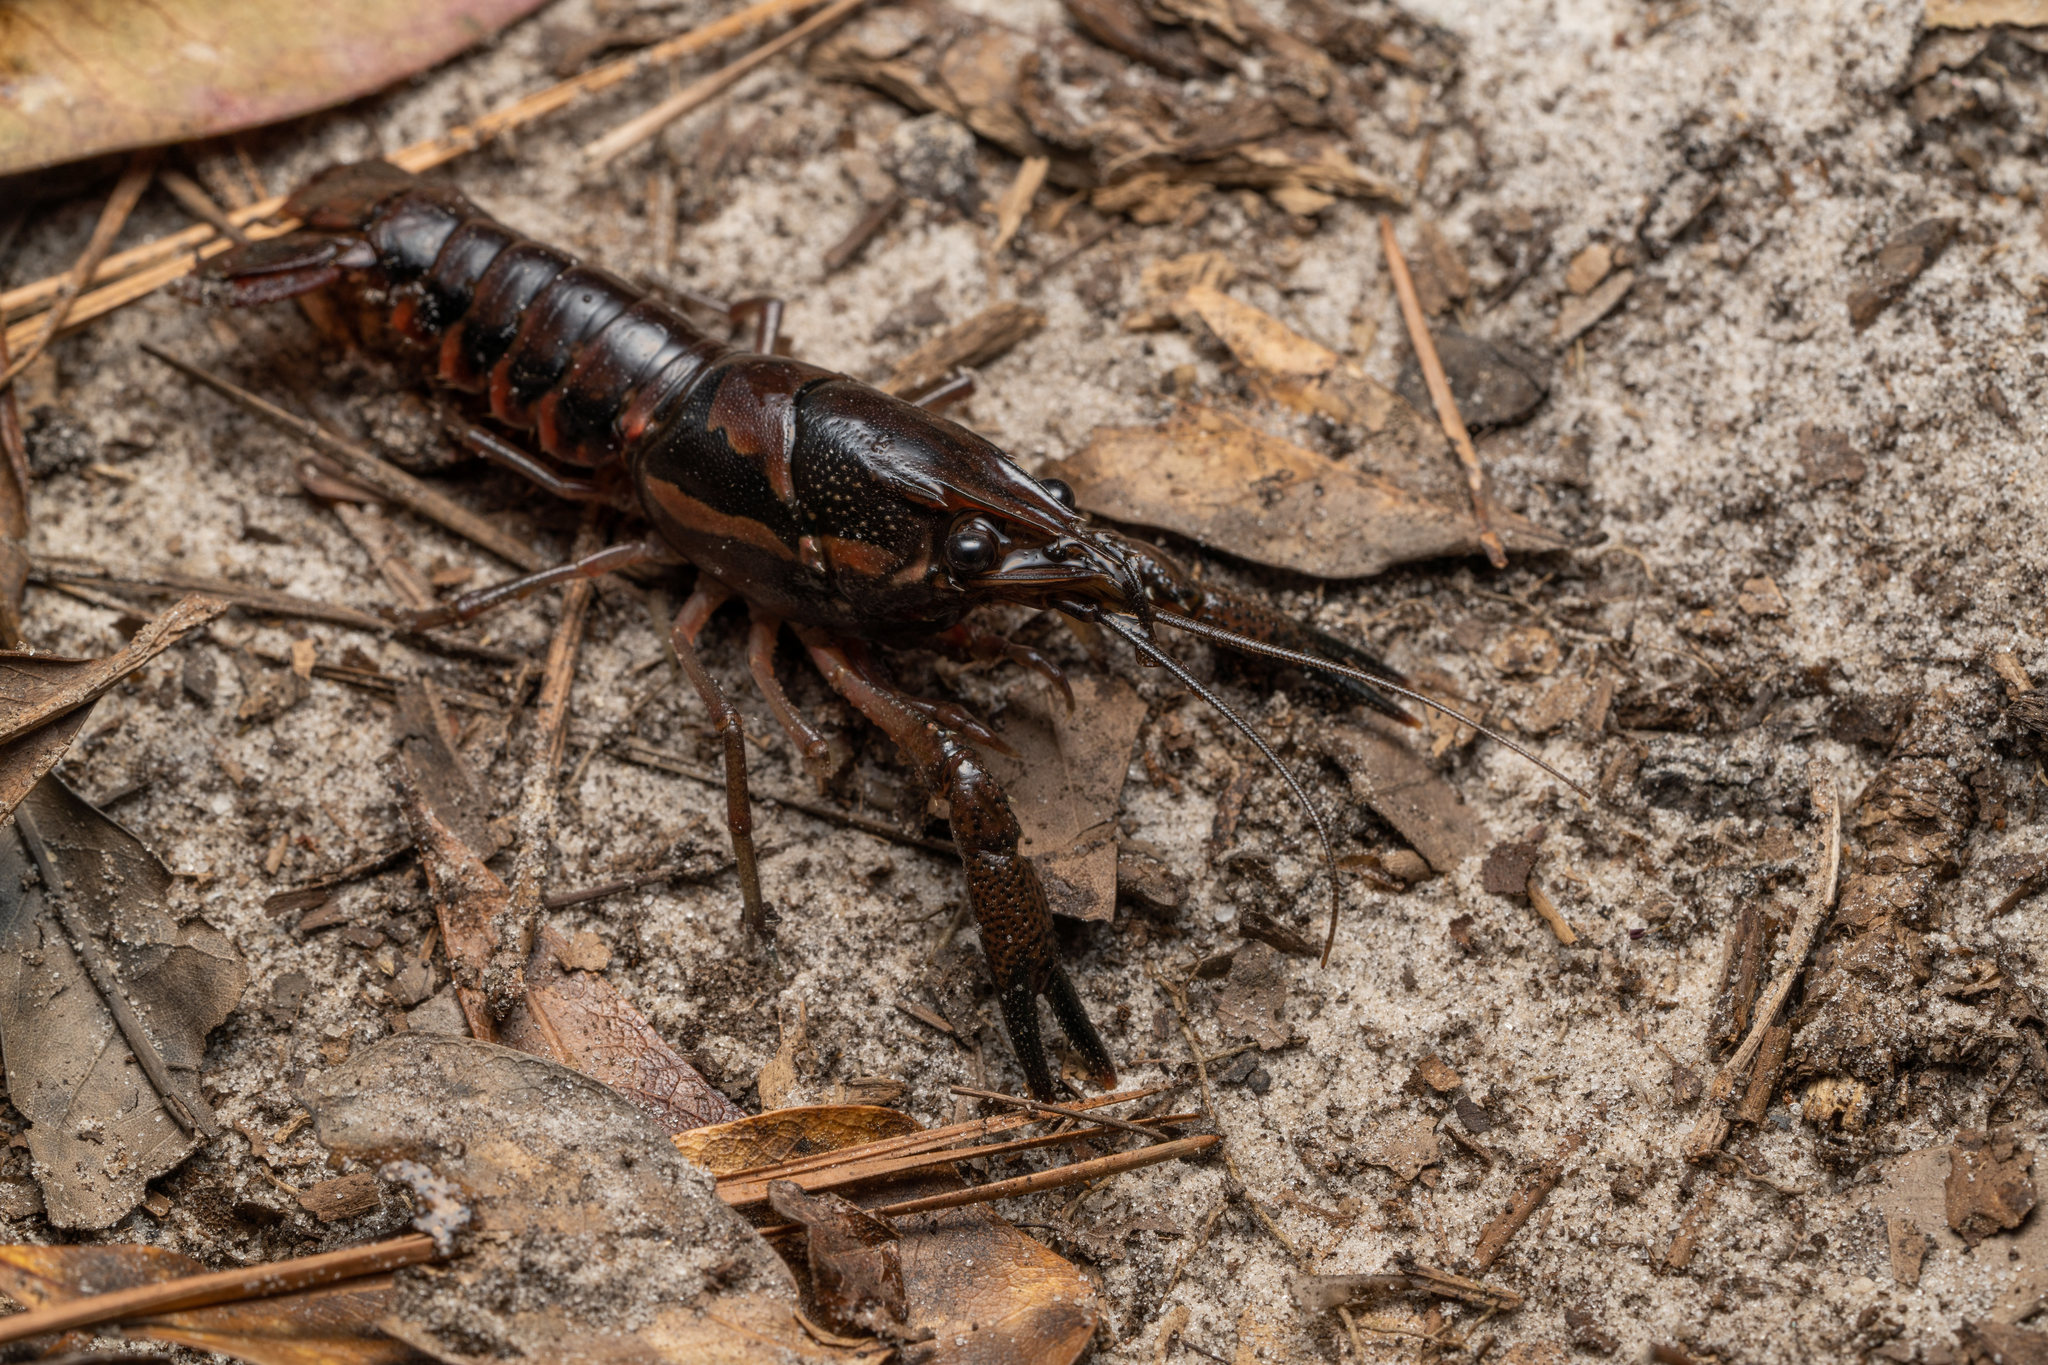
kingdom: Animalia
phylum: Arthropoda
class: Malacostraca
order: Decapoda
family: Cambaridae
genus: Procambarus
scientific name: Procambarus versutus
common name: Sly crayfish
